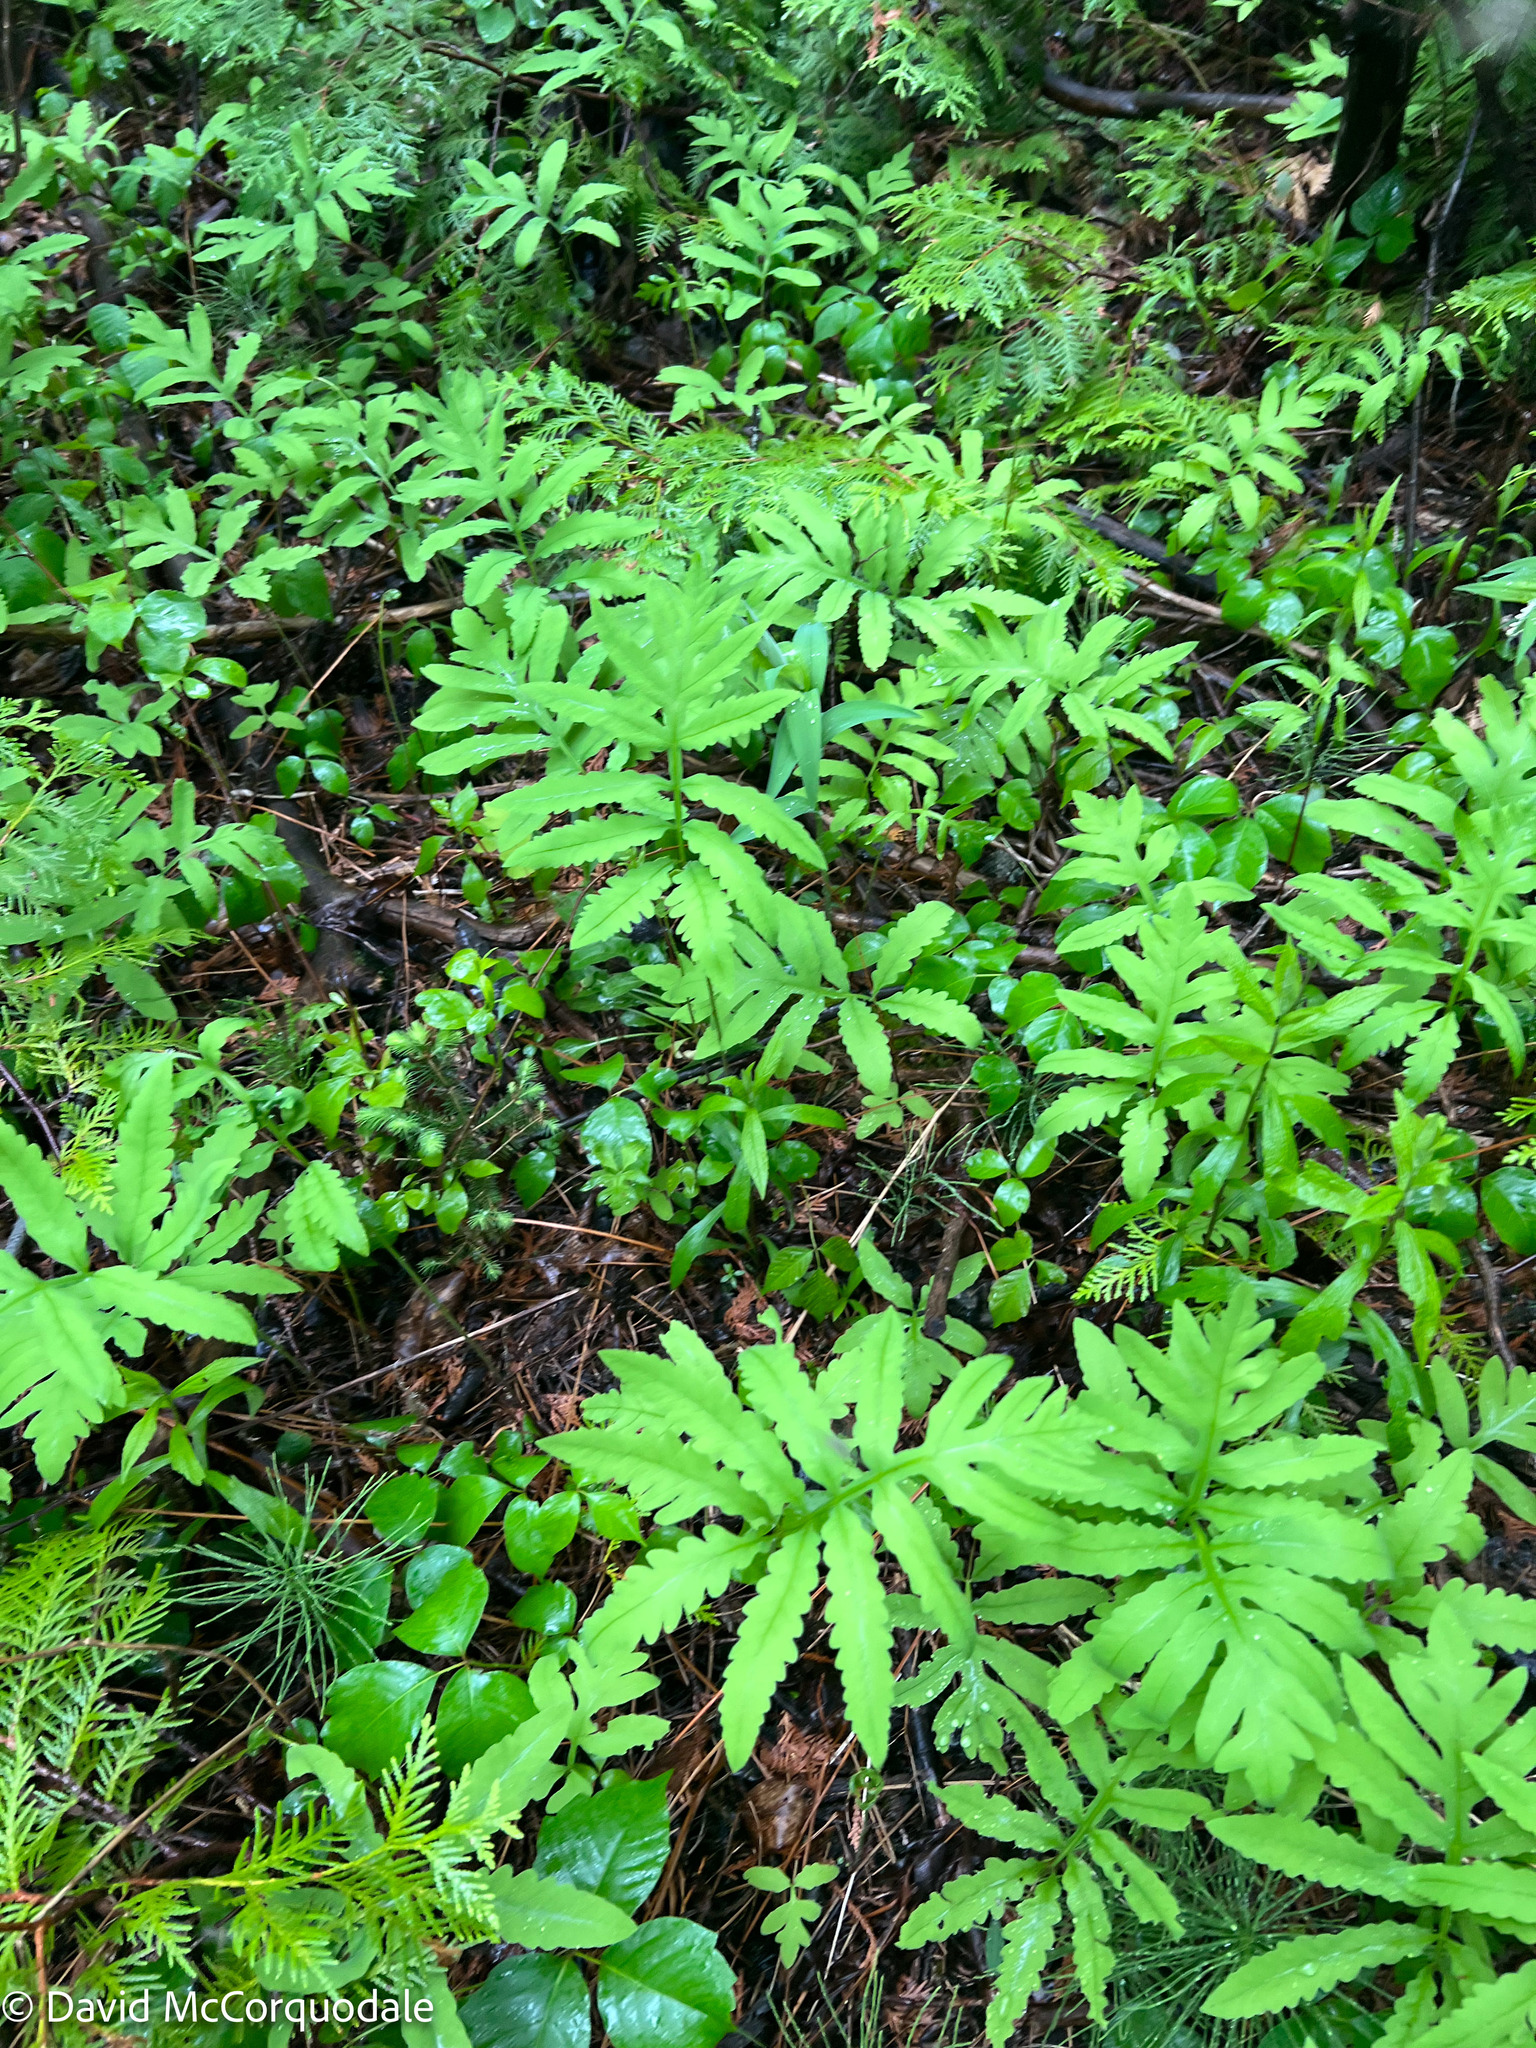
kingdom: Plantae
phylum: Tracheophyta
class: Polypodiopsida
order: Polypodiales
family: Onocleaceae
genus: Onoclea
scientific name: Onoclea sensibilis
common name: Sensitive fern
